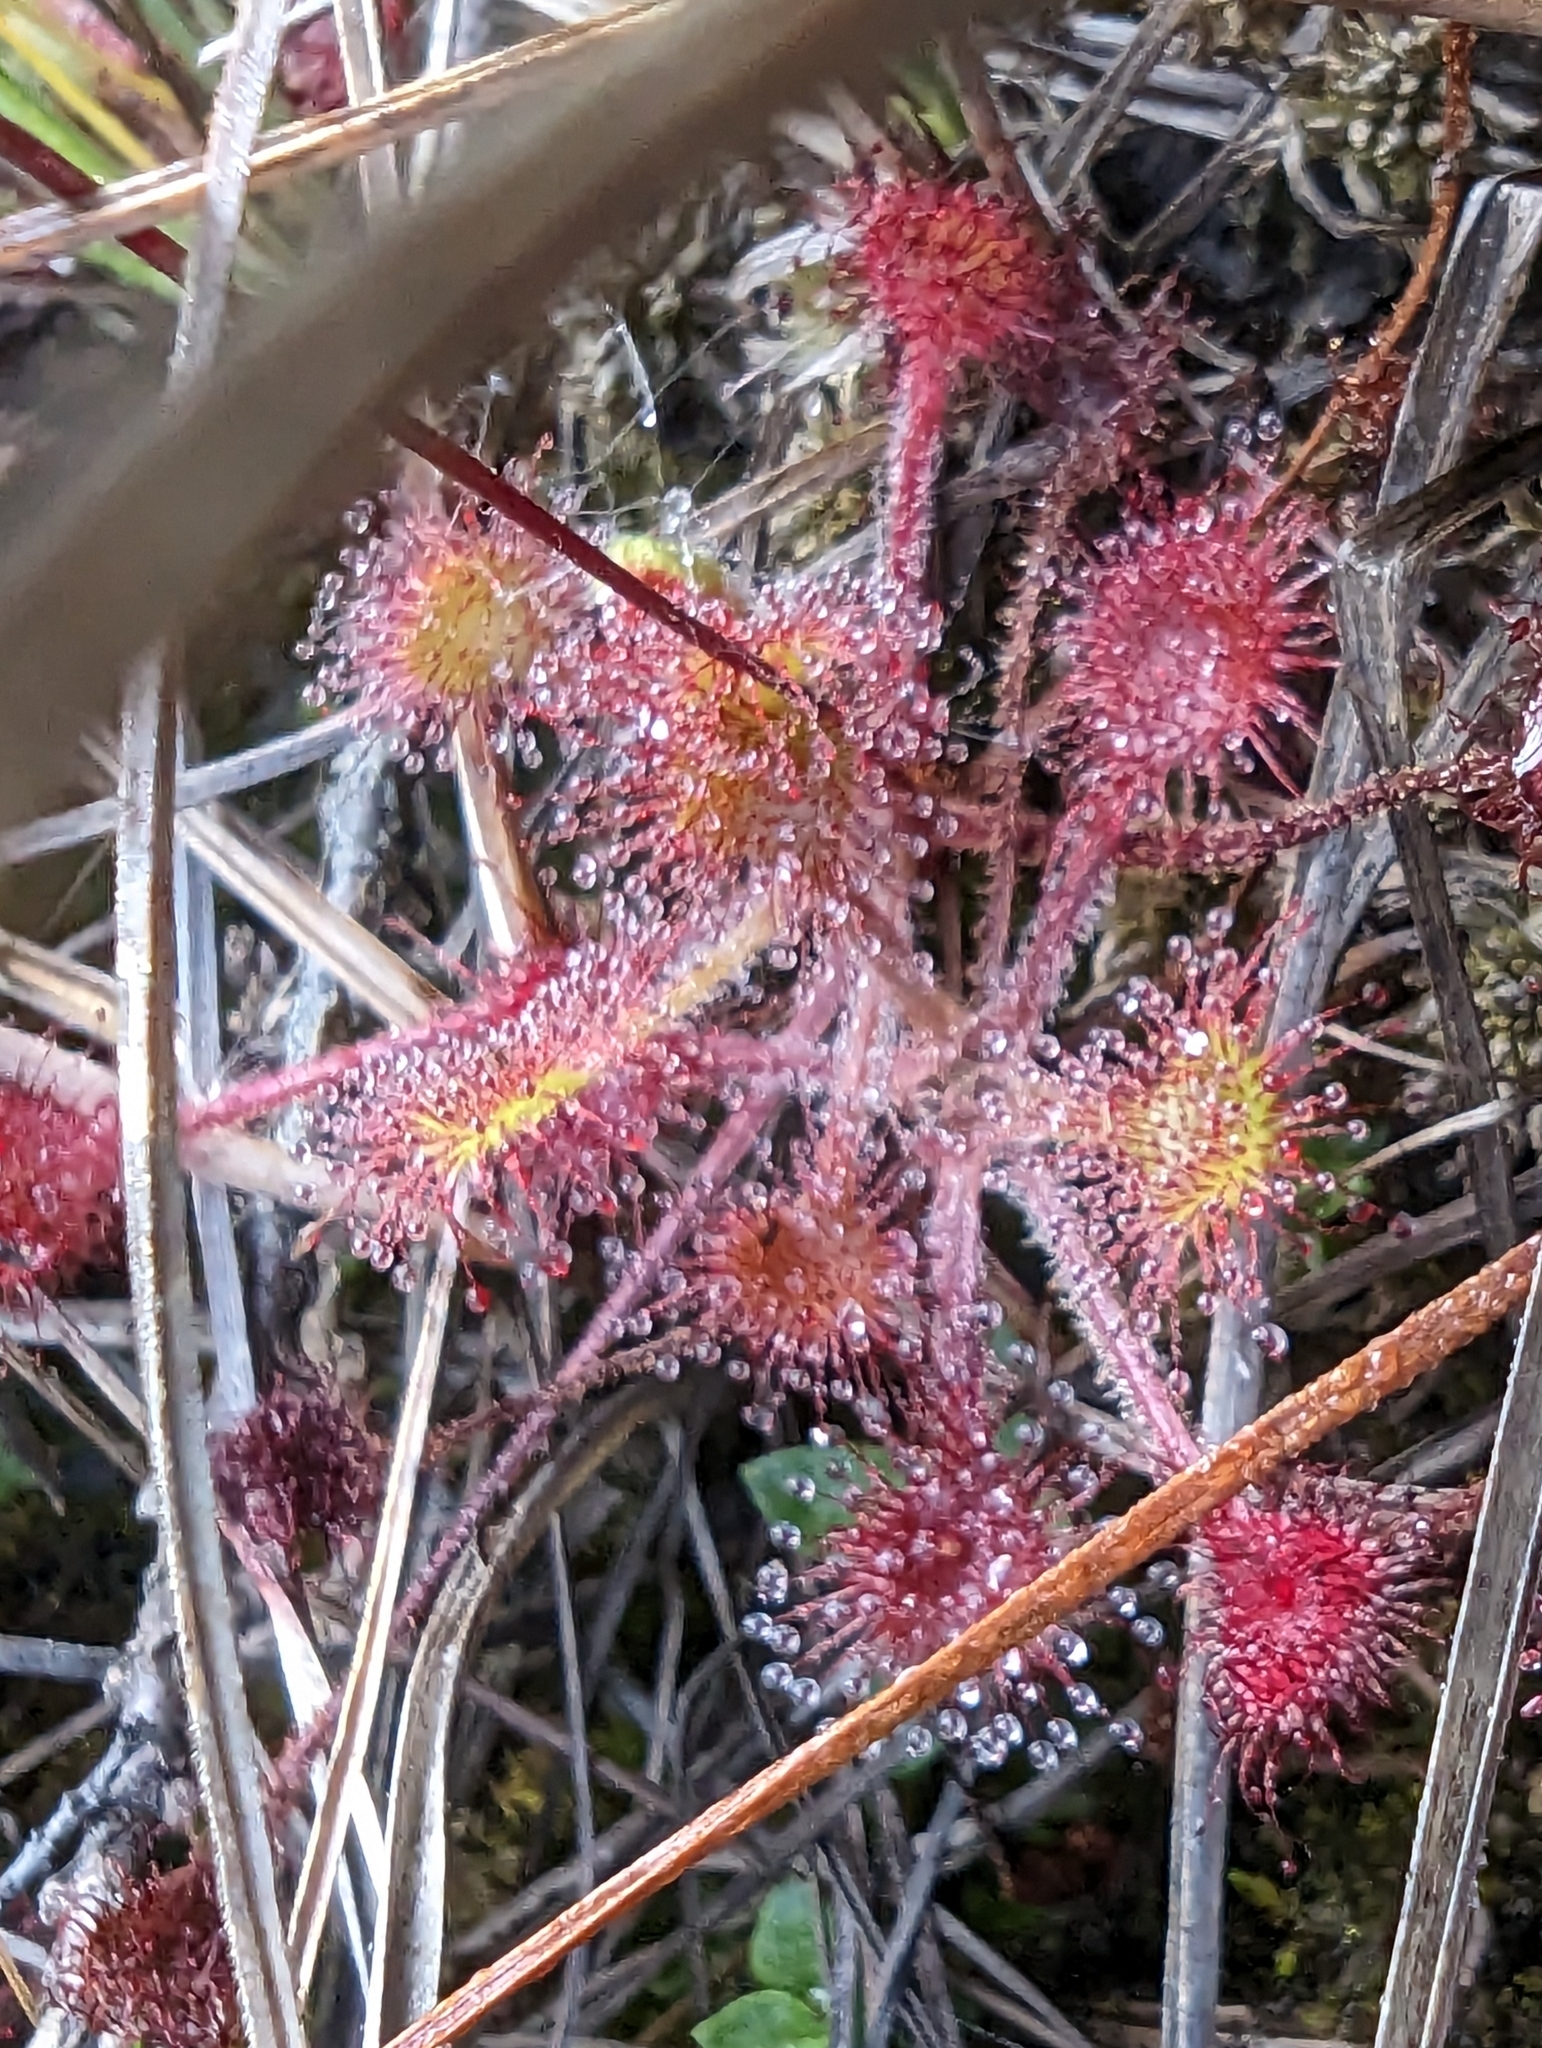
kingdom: Plantae
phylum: Tracheophyta
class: Magnoliopsida
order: Caryophyllales
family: Droseraceae
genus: Drosera
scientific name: Drosera rotundifolia
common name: Round-leaved sundew
